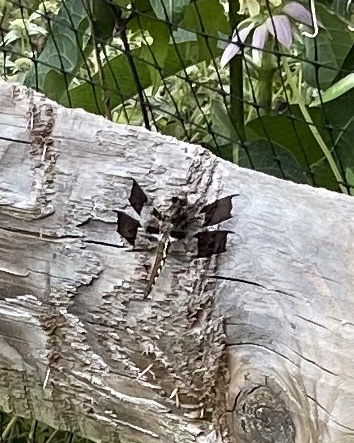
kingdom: Animalia
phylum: Arthropoda
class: Insecta
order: Odonata
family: Libellulidae
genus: Plathemis
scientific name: Plathemis lydia
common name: Common whitetail
